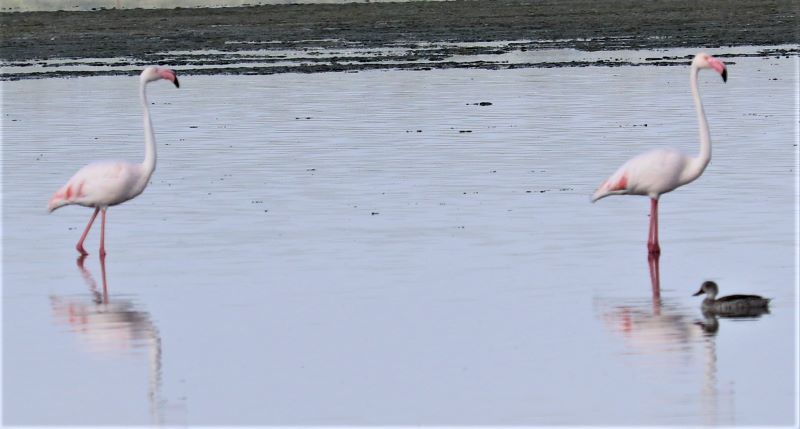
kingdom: Animalia
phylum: Chordata
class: Aves
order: Phoenicopteriformes
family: Phoenicopteridae
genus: Phoenicopterus
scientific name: Phoenicopterus roseus
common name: Greater flamingo
